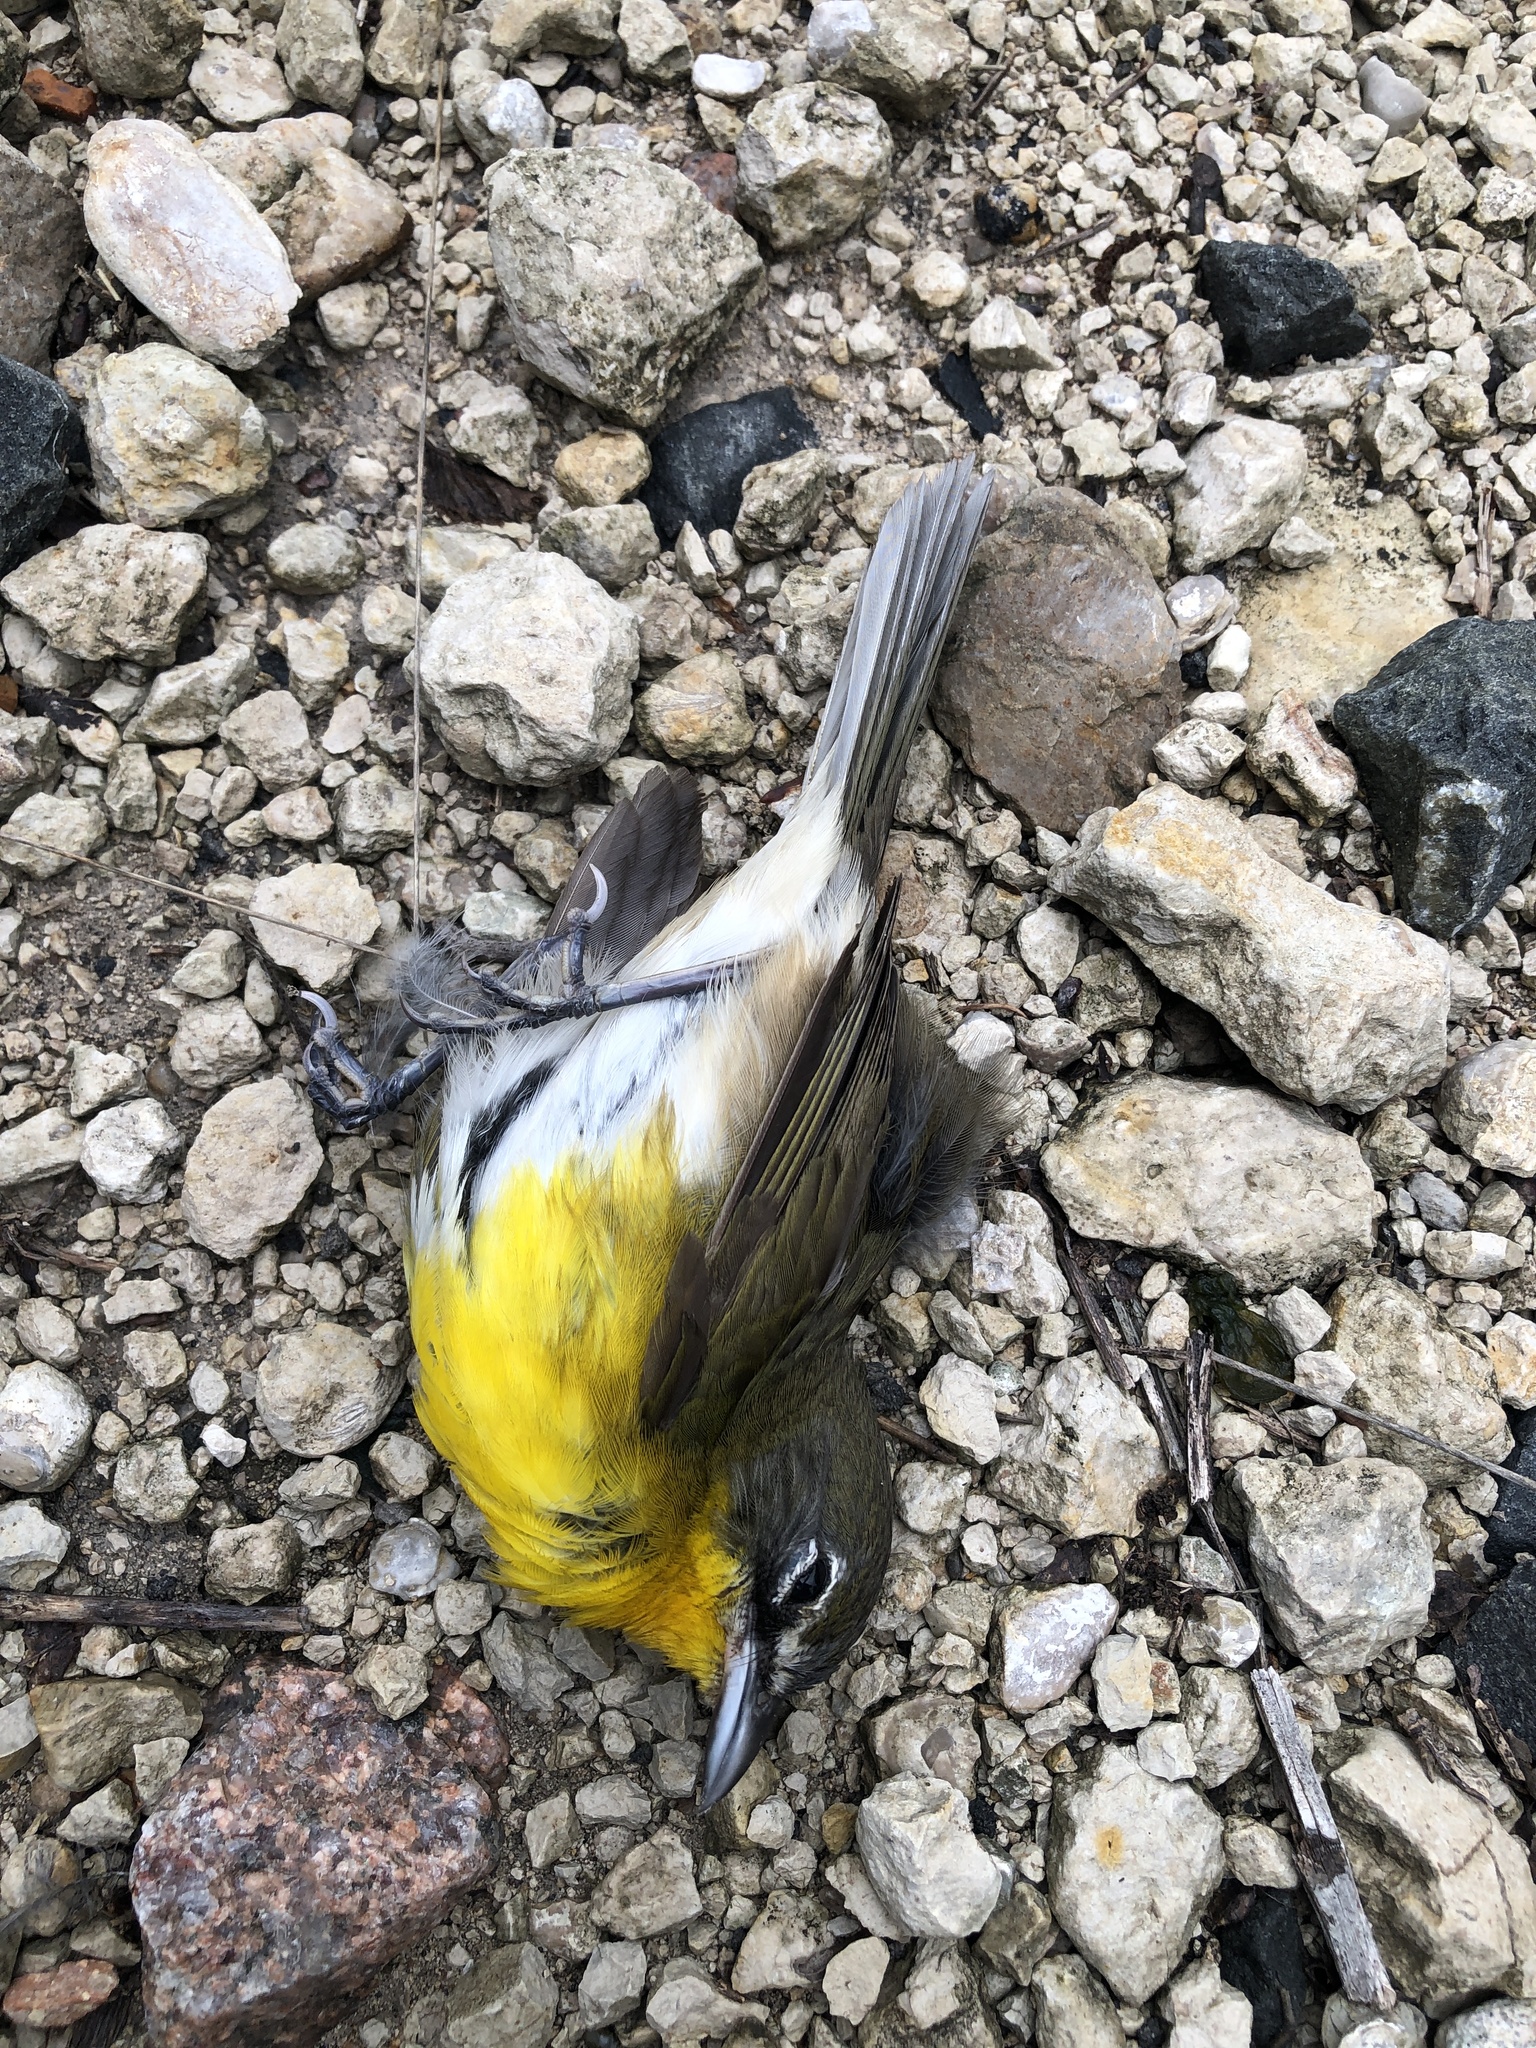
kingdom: Animalia
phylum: Chordata
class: Aves
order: Passeriformes
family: Parulidae
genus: Icteria
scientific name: Icteria virens
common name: Yellow-breasted chat
